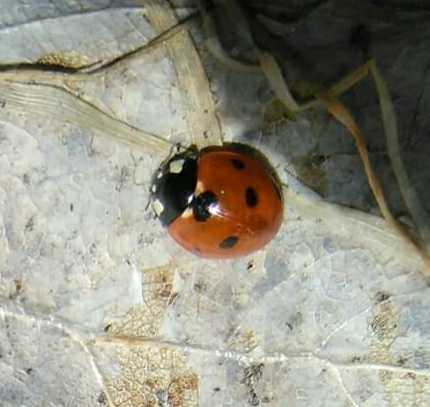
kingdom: Animalia
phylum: Arthropoda
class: Insecta
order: Coleoptera
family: Coccinellidae
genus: Coccinella
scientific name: Coccinella septempunctata
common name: Sevenspotted lady beetle
